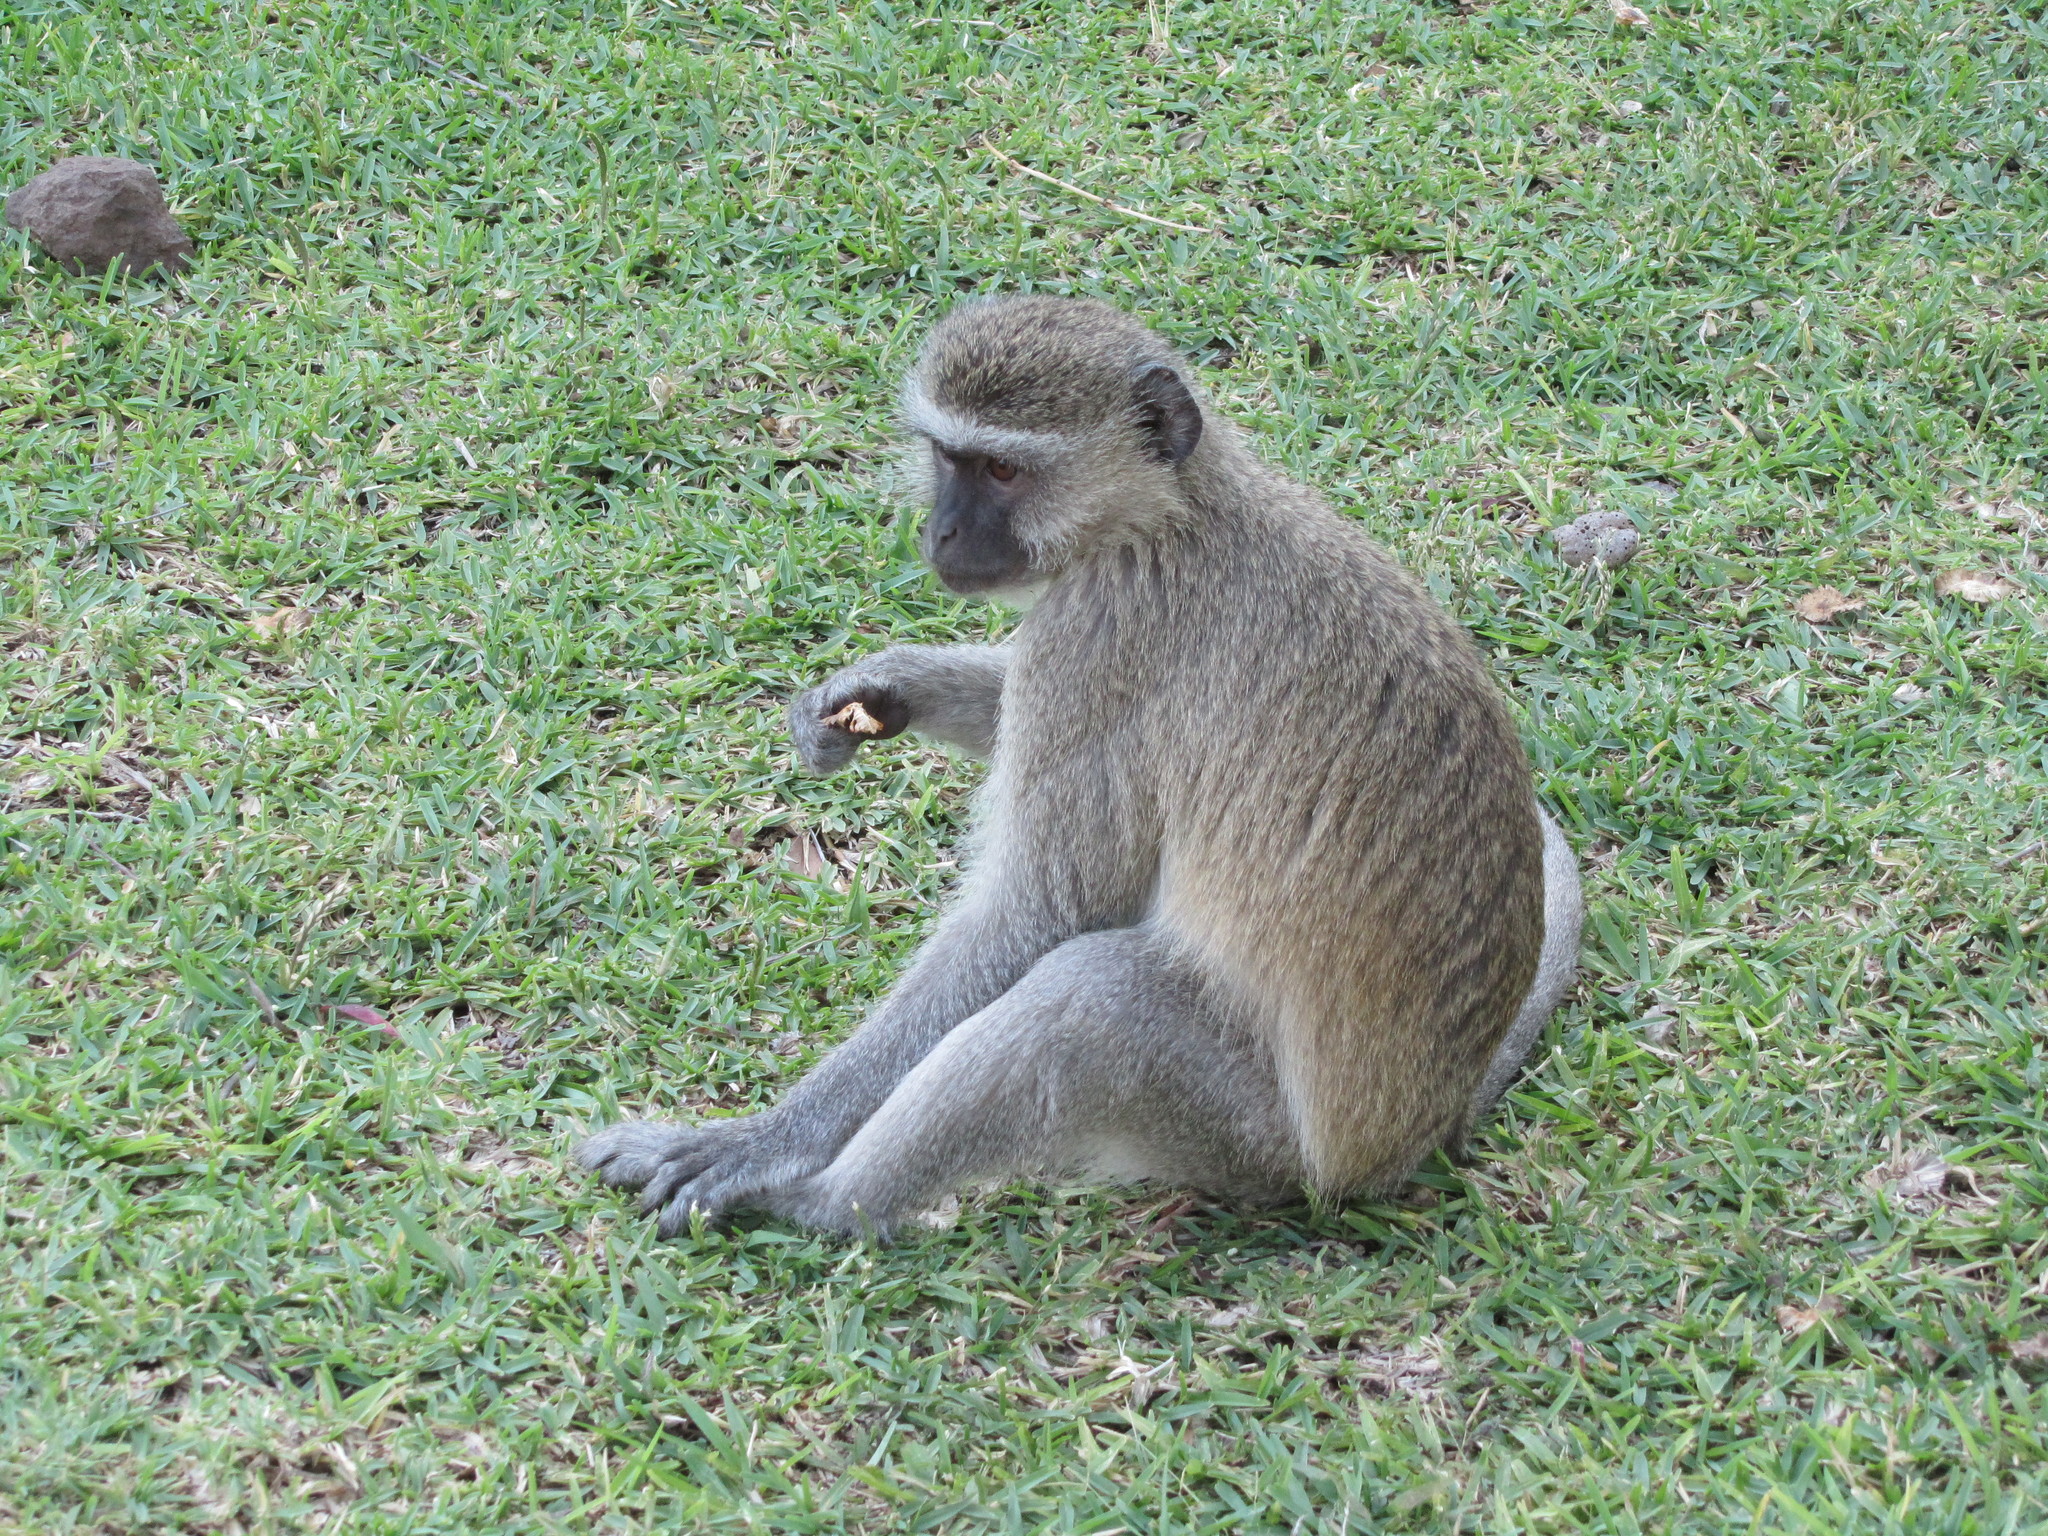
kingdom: Animalia
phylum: Chordata
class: Mammalia
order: Primates
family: Cercopithecidae
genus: Chlorocebus
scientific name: Chlorocebus pygerythrus
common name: Vervet monkey
